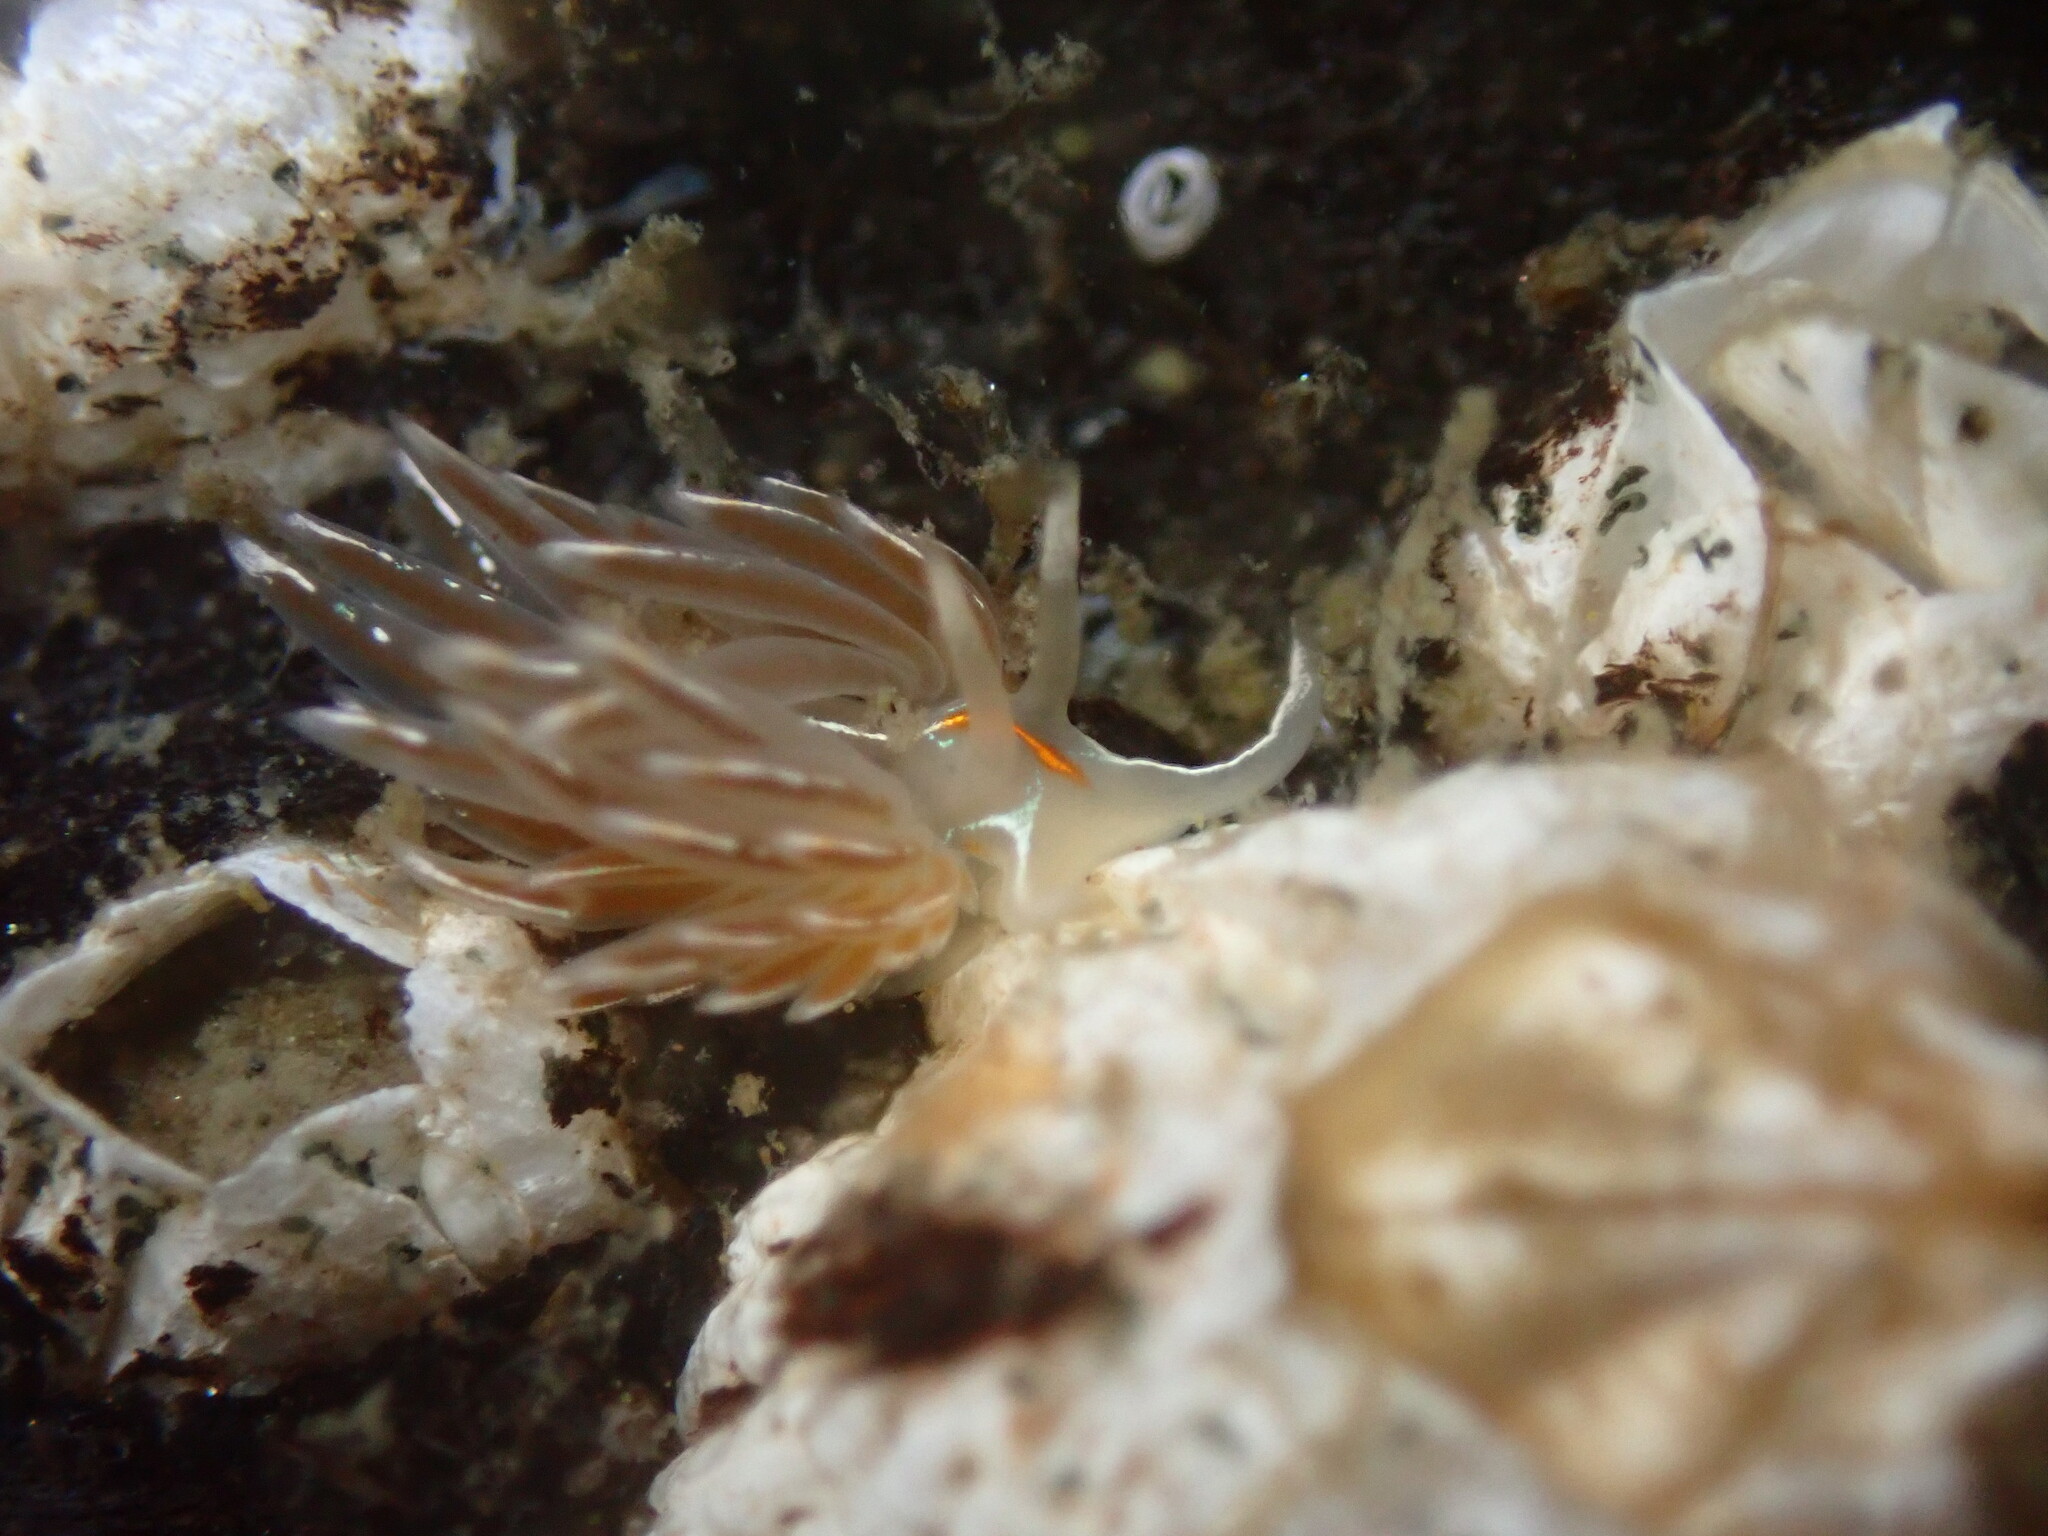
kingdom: Animalia
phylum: Mollusca
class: Gastropoda
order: Nudibranchia
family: Myrrhinidae
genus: Hermissenda
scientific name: Hermissenda crassicornis
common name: Hermissenda
